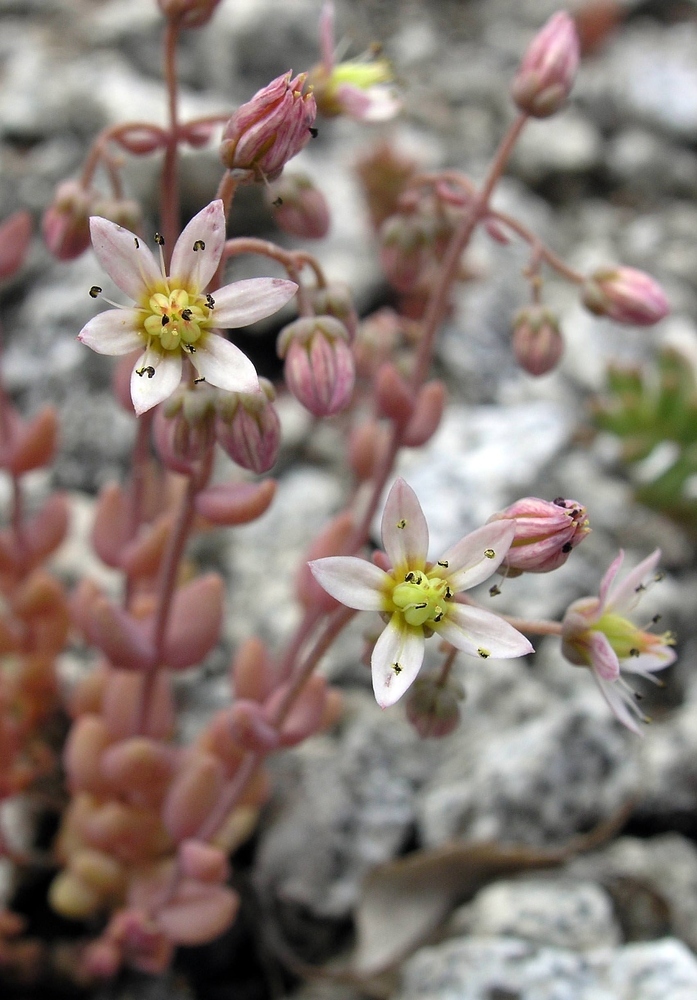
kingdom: Plantae
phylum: Tracheophyta
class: Magnoliopsida
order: Saxifragales
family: Crassulaceae
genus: Sedum
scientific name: Sedum dasyphyllum
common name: Thick-leaf stonecrop
